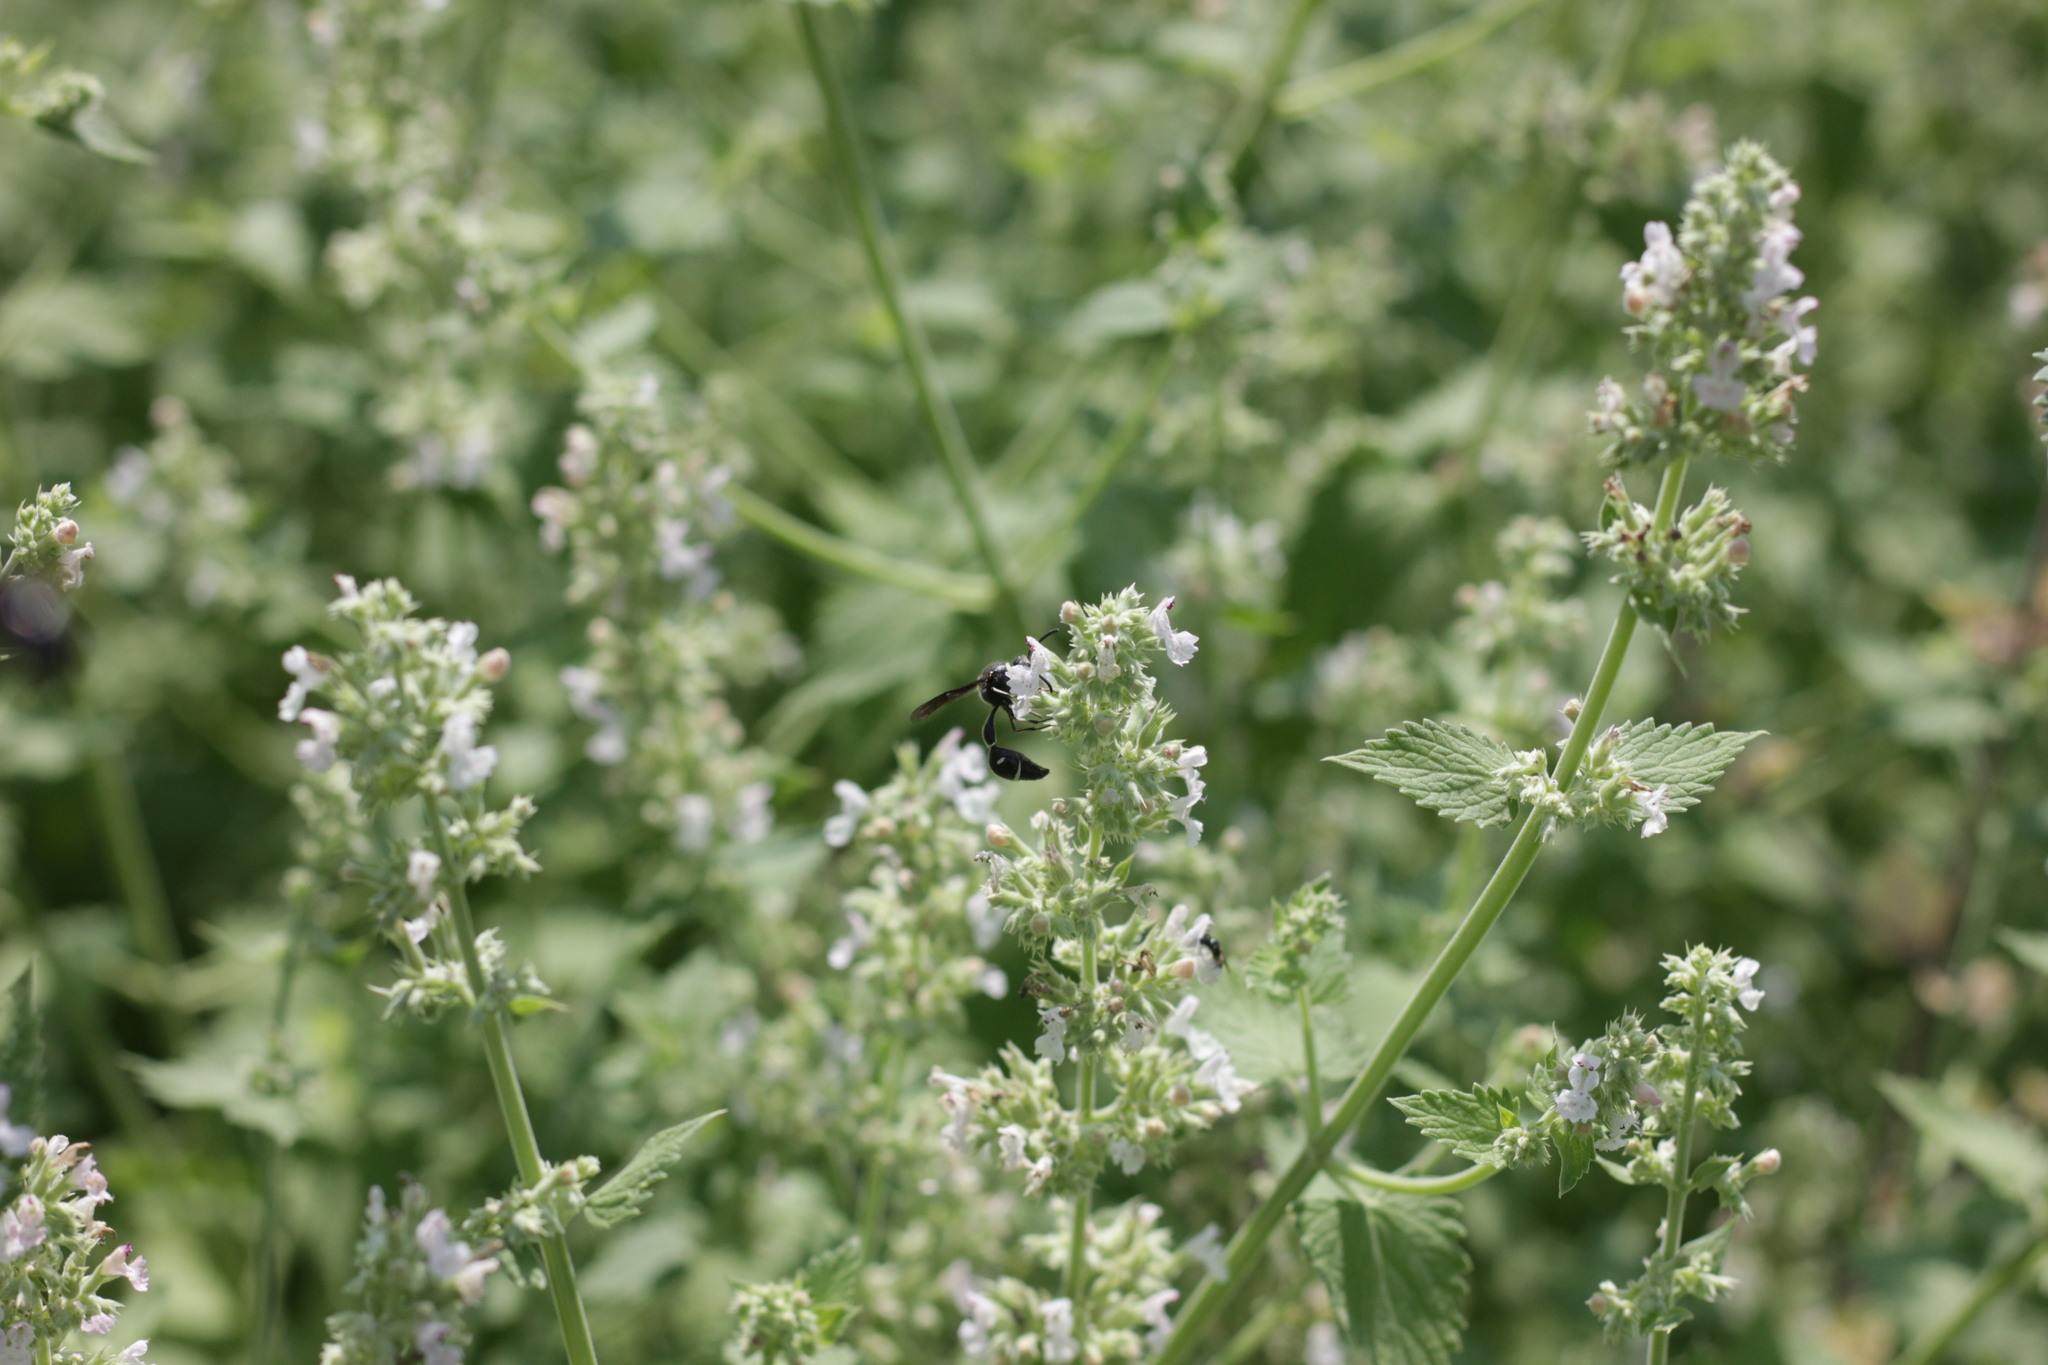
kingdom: Animalia
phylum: Arthropoda
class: Insecta
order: Hymenoptera
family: Vespidae
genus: Eumenes
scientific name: Eumenes fraternus
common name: Fraternal potter wasp
